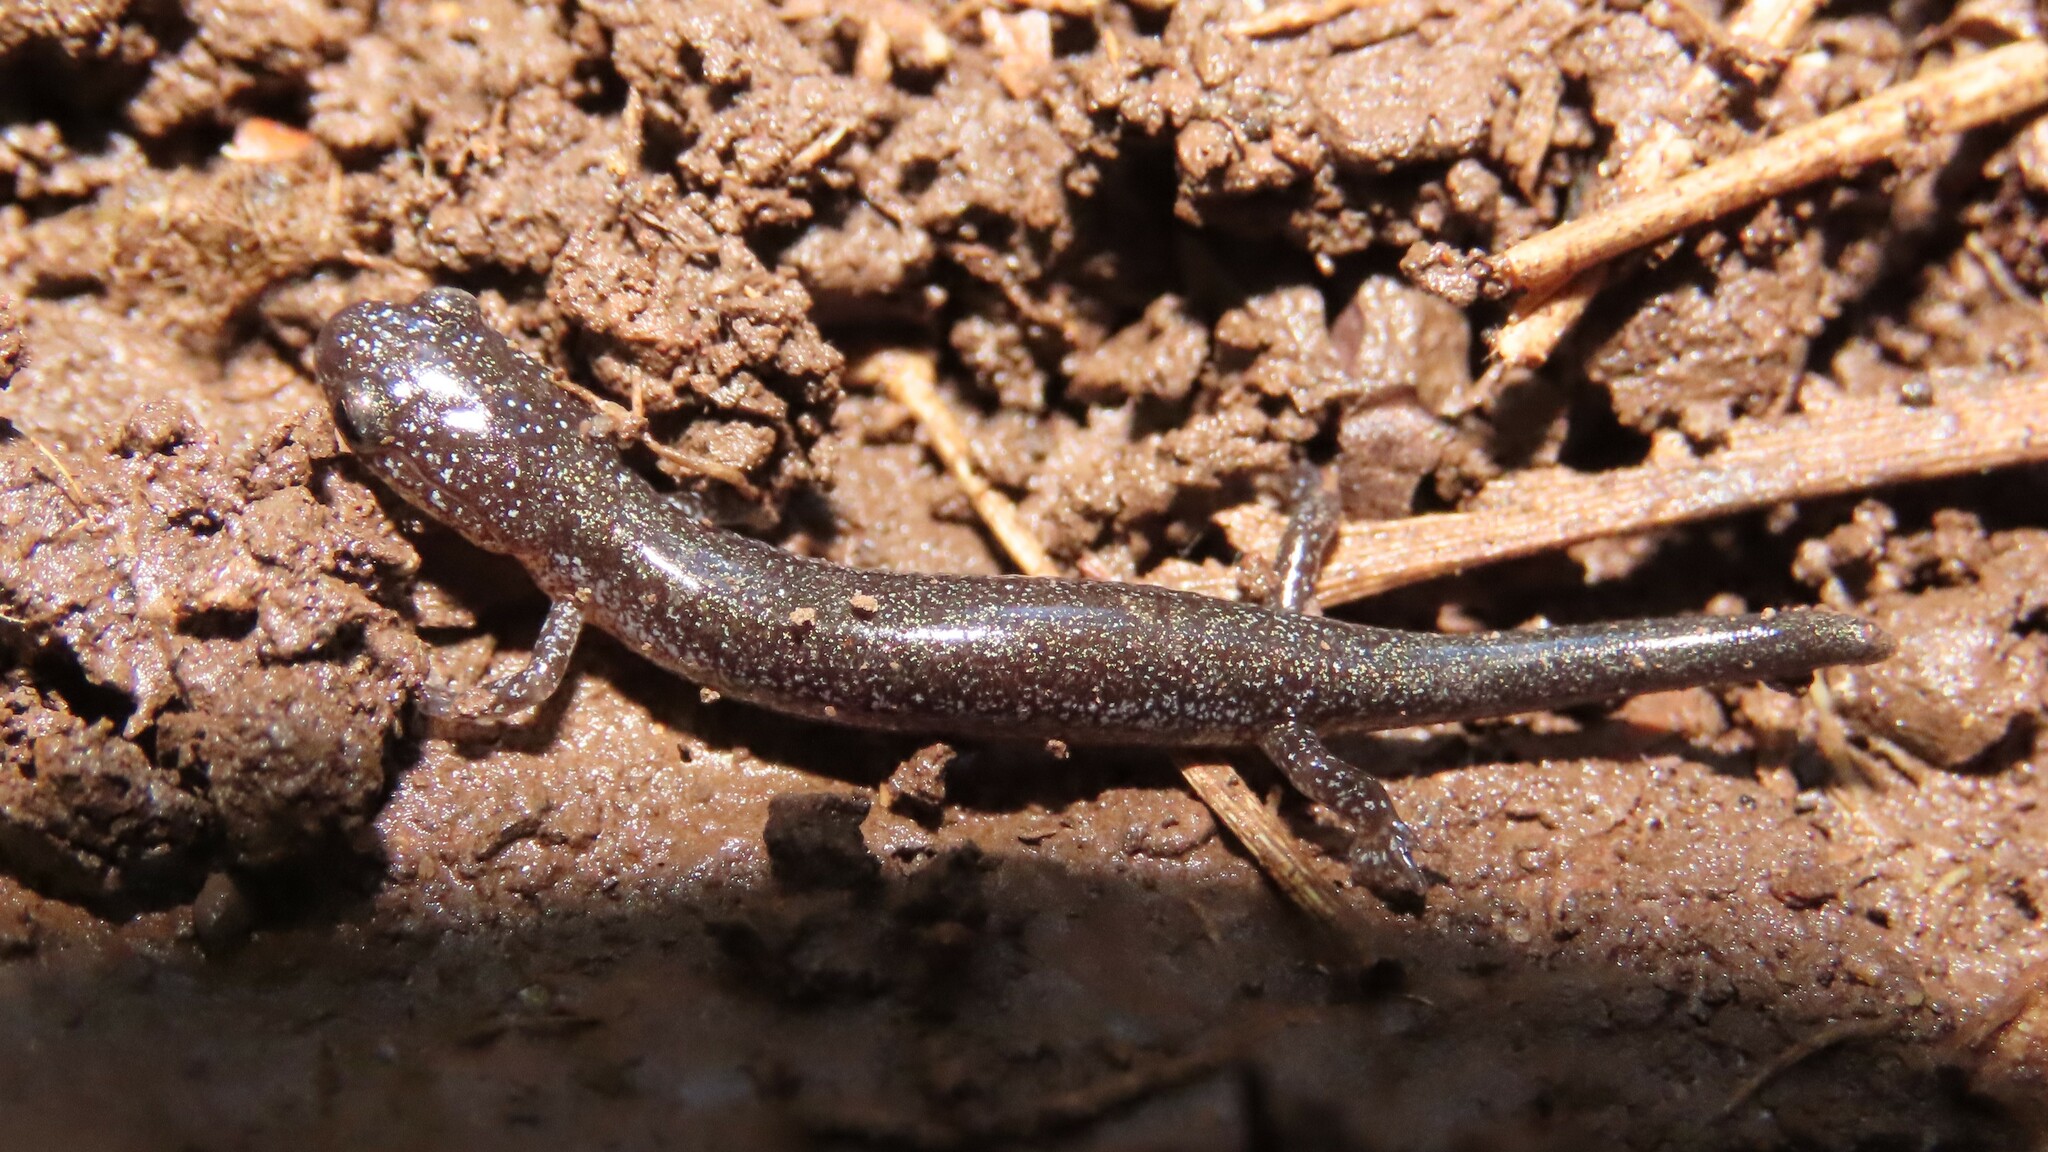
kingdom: Animalia
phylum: Chordata
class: Amphibia
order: Caudata
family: Plethodontidae
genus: Plethodon
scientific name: Plethodon cinereus
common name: Redback salamander
